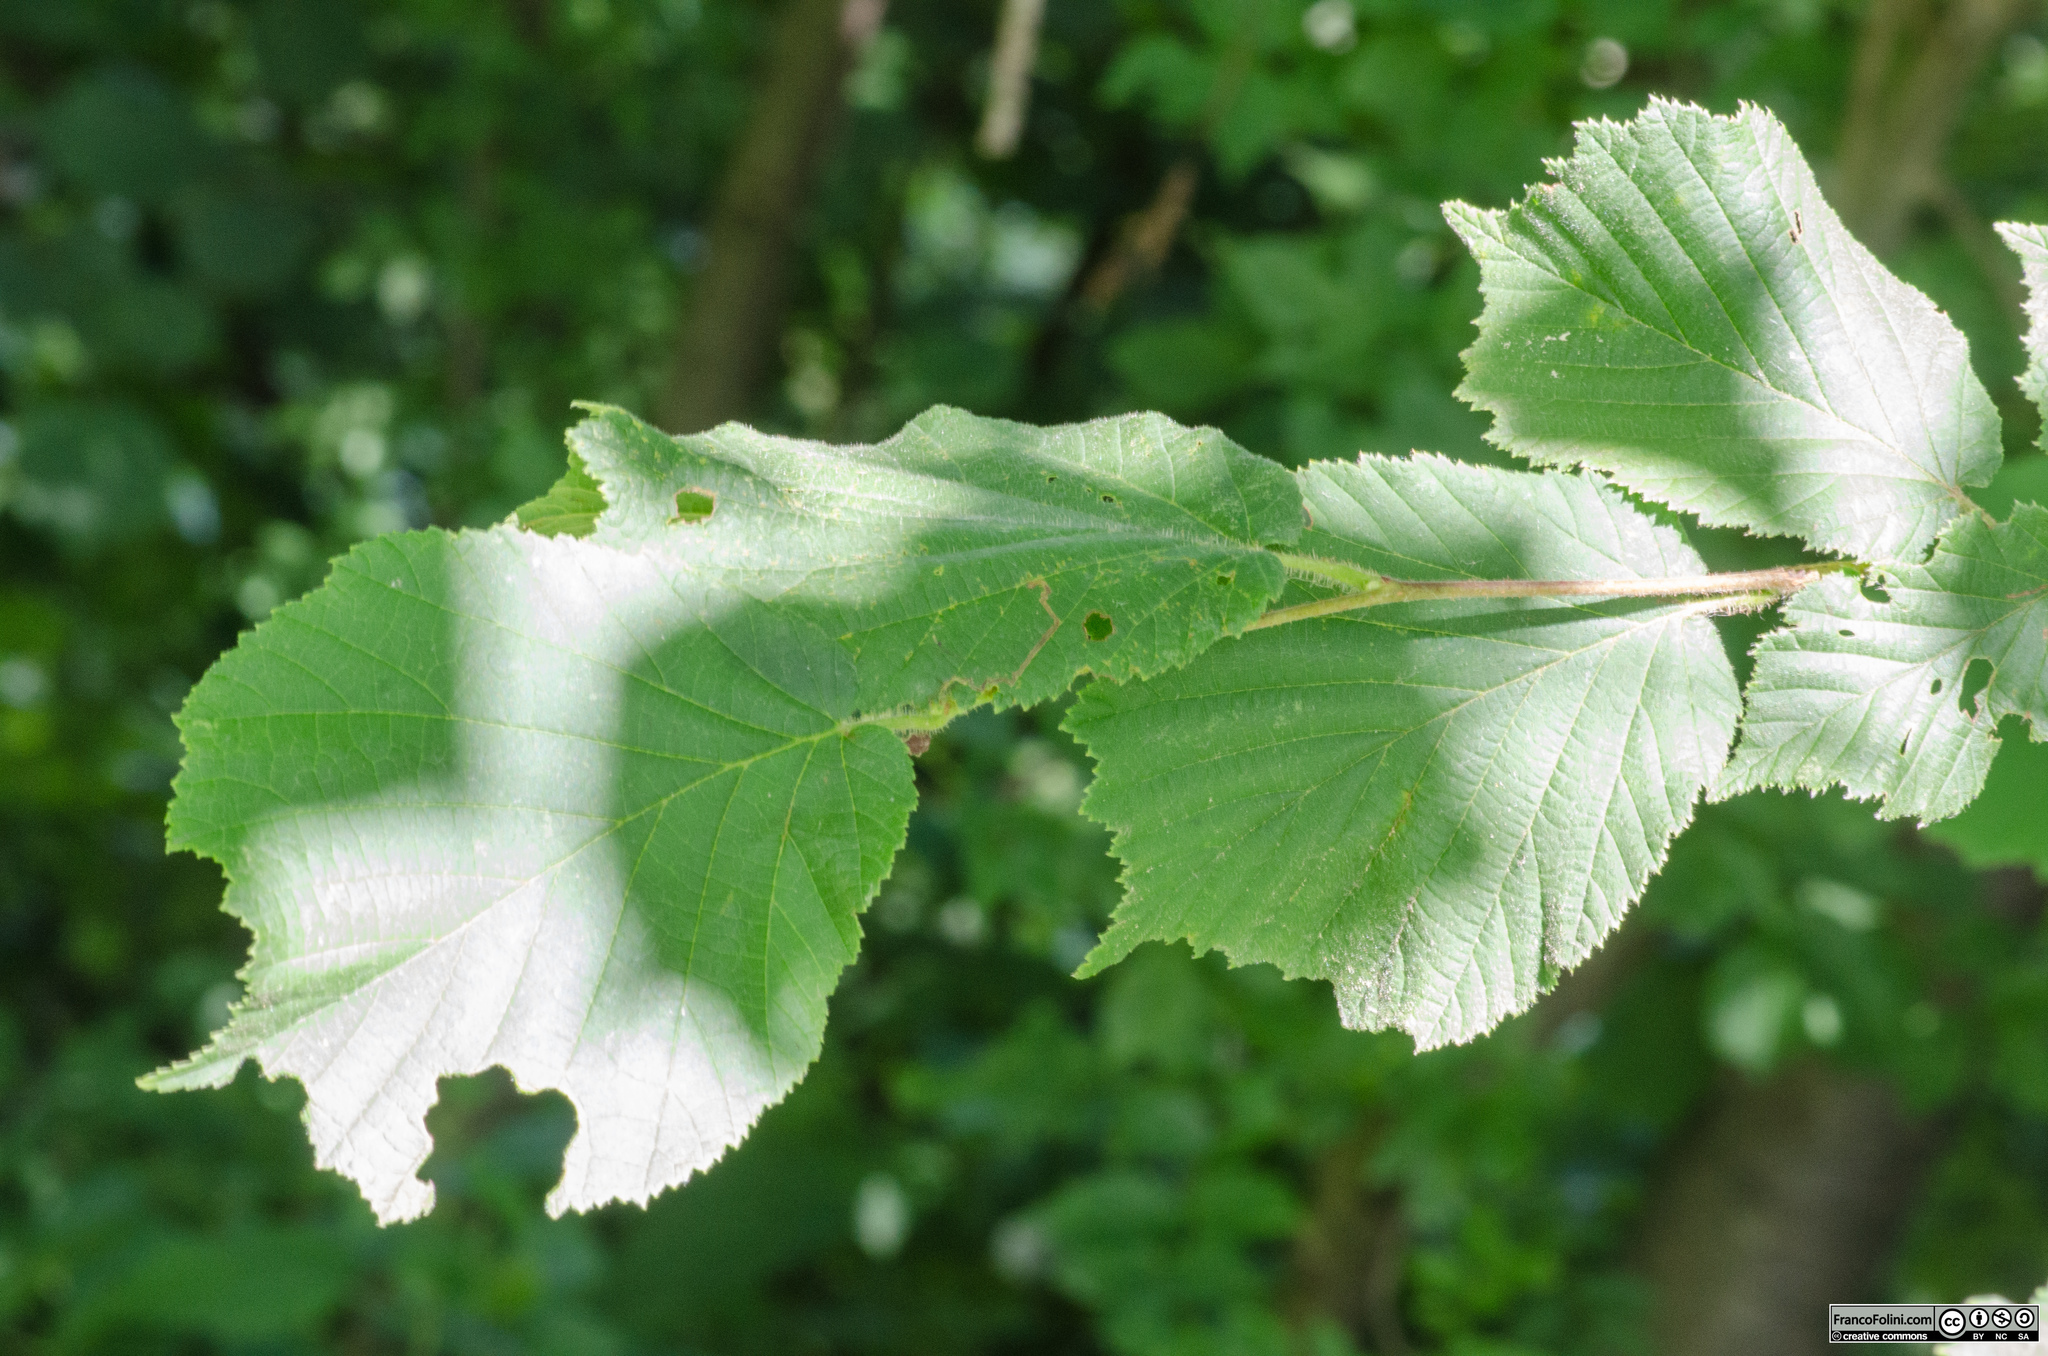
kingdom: Plantae
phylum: Tracheophyta
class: Magnoliopsida
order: Fagales
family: Betulaceae
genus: Corylus
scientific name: Corylus avellana
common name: European hazel
